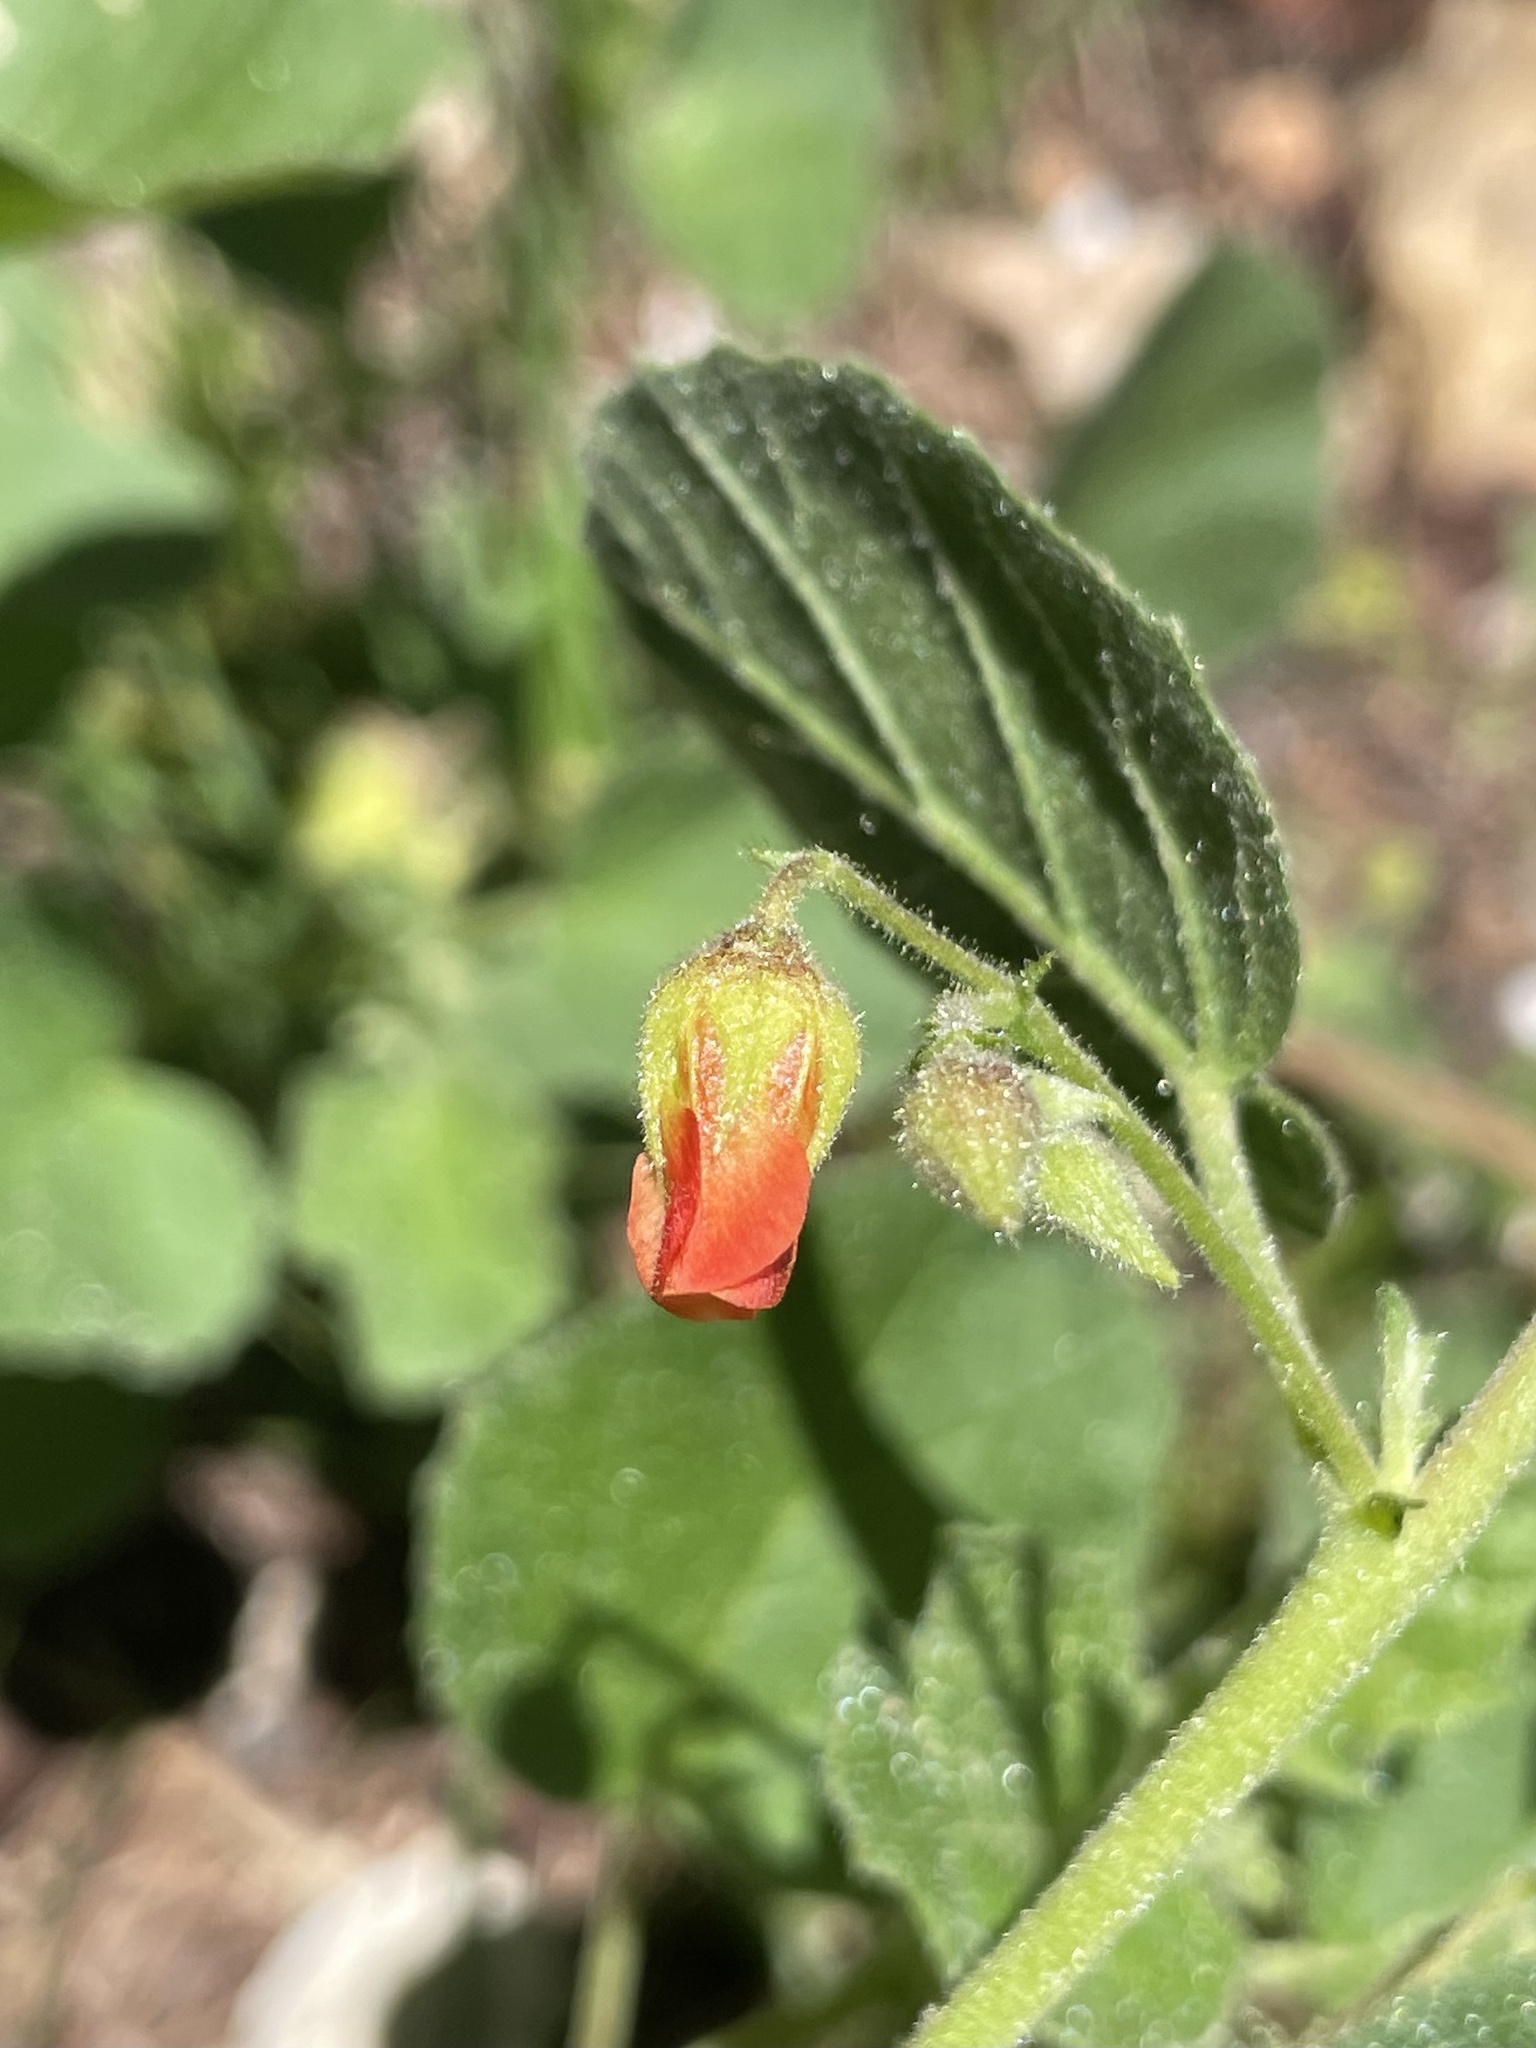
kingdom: Plantae
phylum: Tracheophyta
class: Magnoliopsida
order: Malvales
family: Malvaceae
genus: Hermannia
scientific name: Hermannia texana
